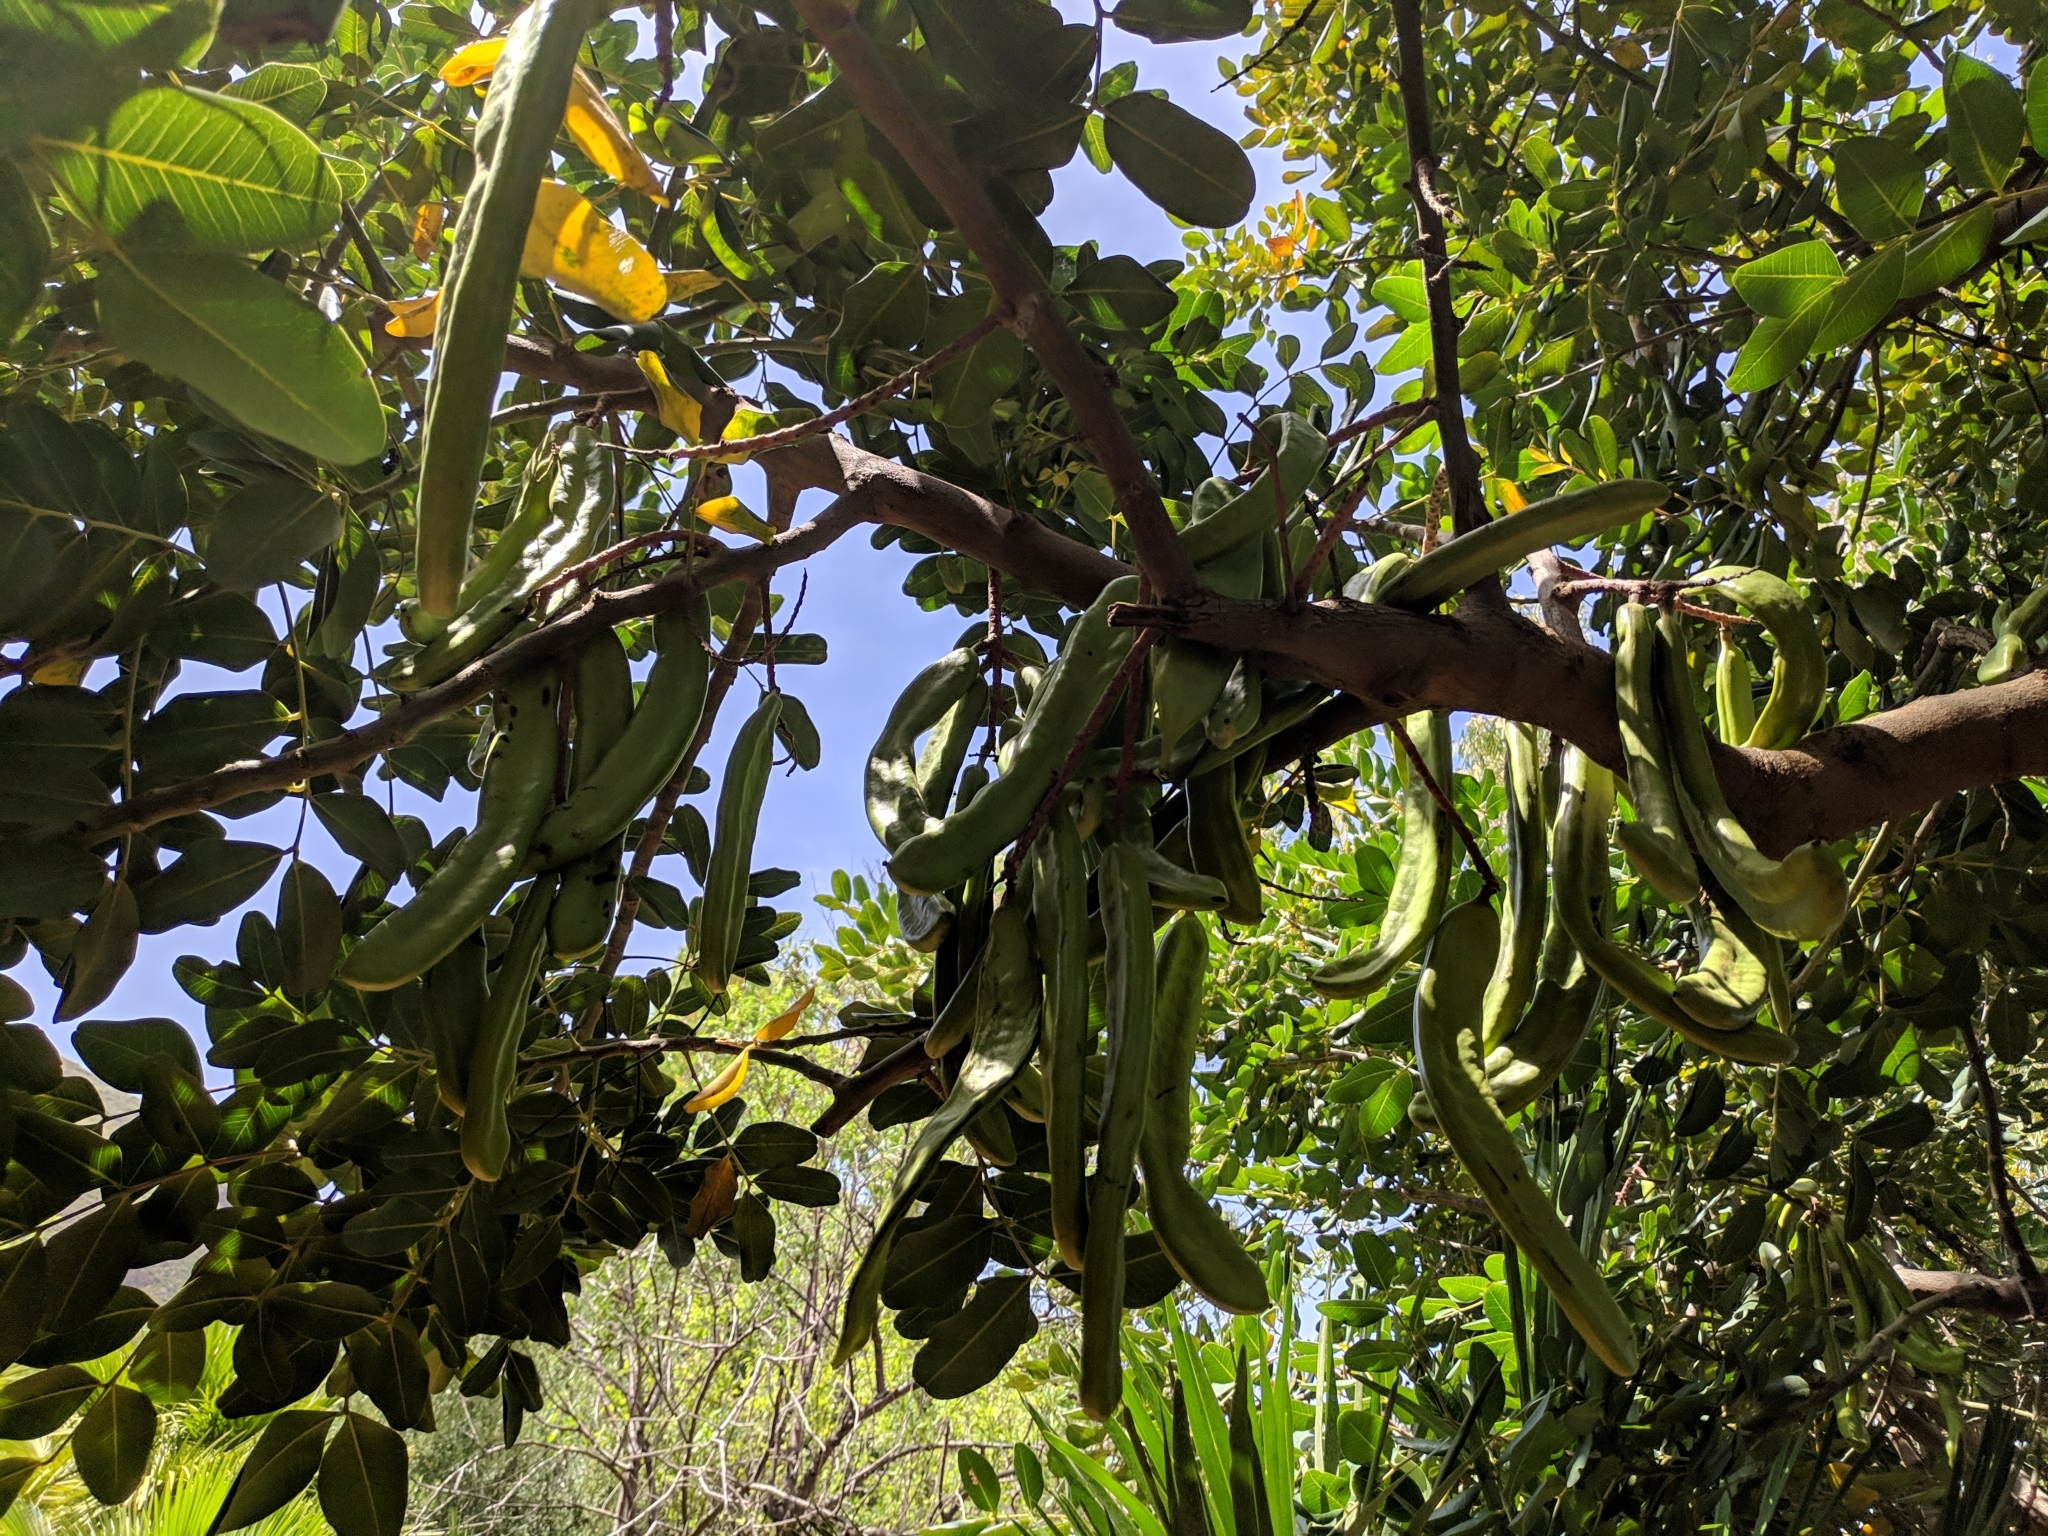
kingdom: Plantae
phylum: Tracheophyta
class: Magnoliopsida
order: Fabales
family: Fabaceae
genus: Ceratonia
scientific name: Ceratonia siliqua
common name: Carob
